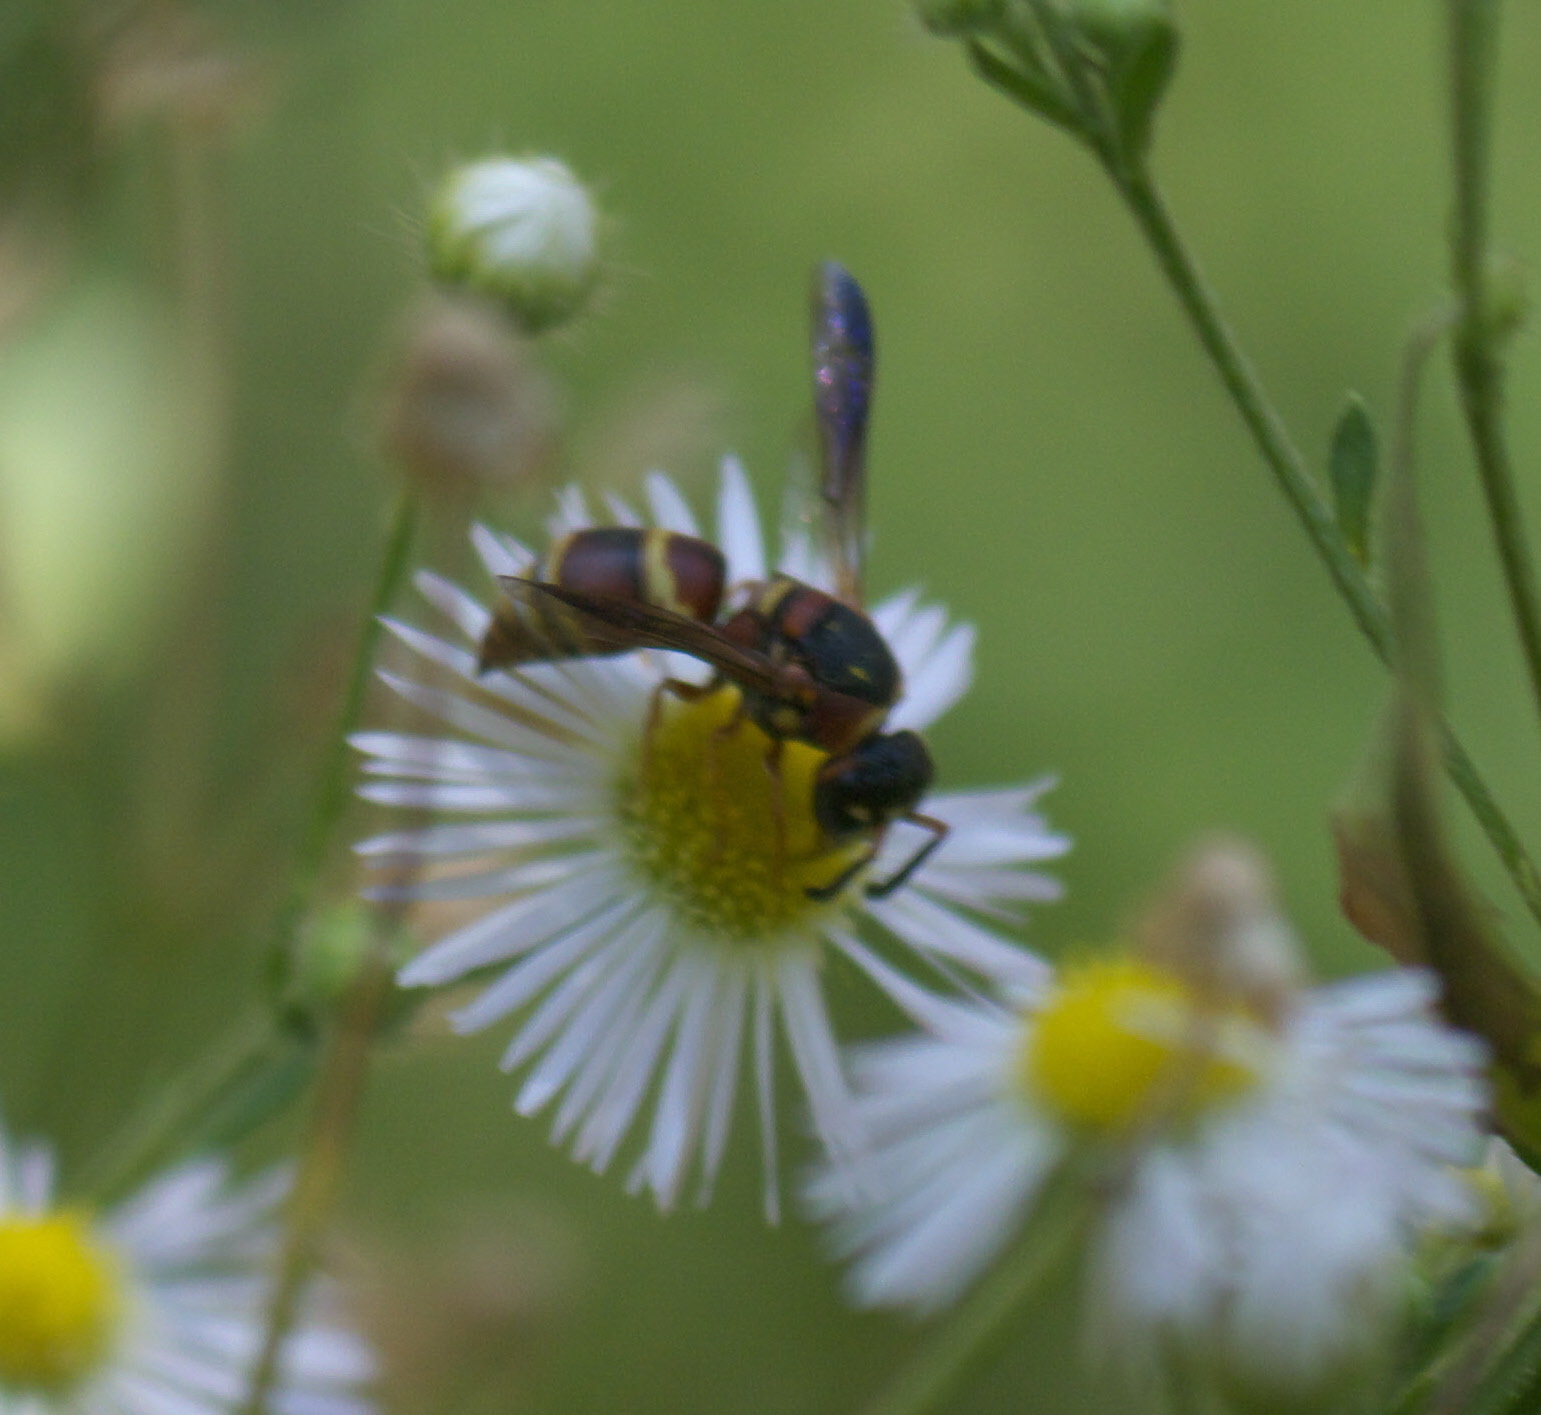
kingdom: Animalia
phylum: Arthropoda
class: Insecta
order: Hymenoptera
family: Eumenidae
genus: Euodynerus
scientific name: Euodynerus hidalgo
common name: Wasp
